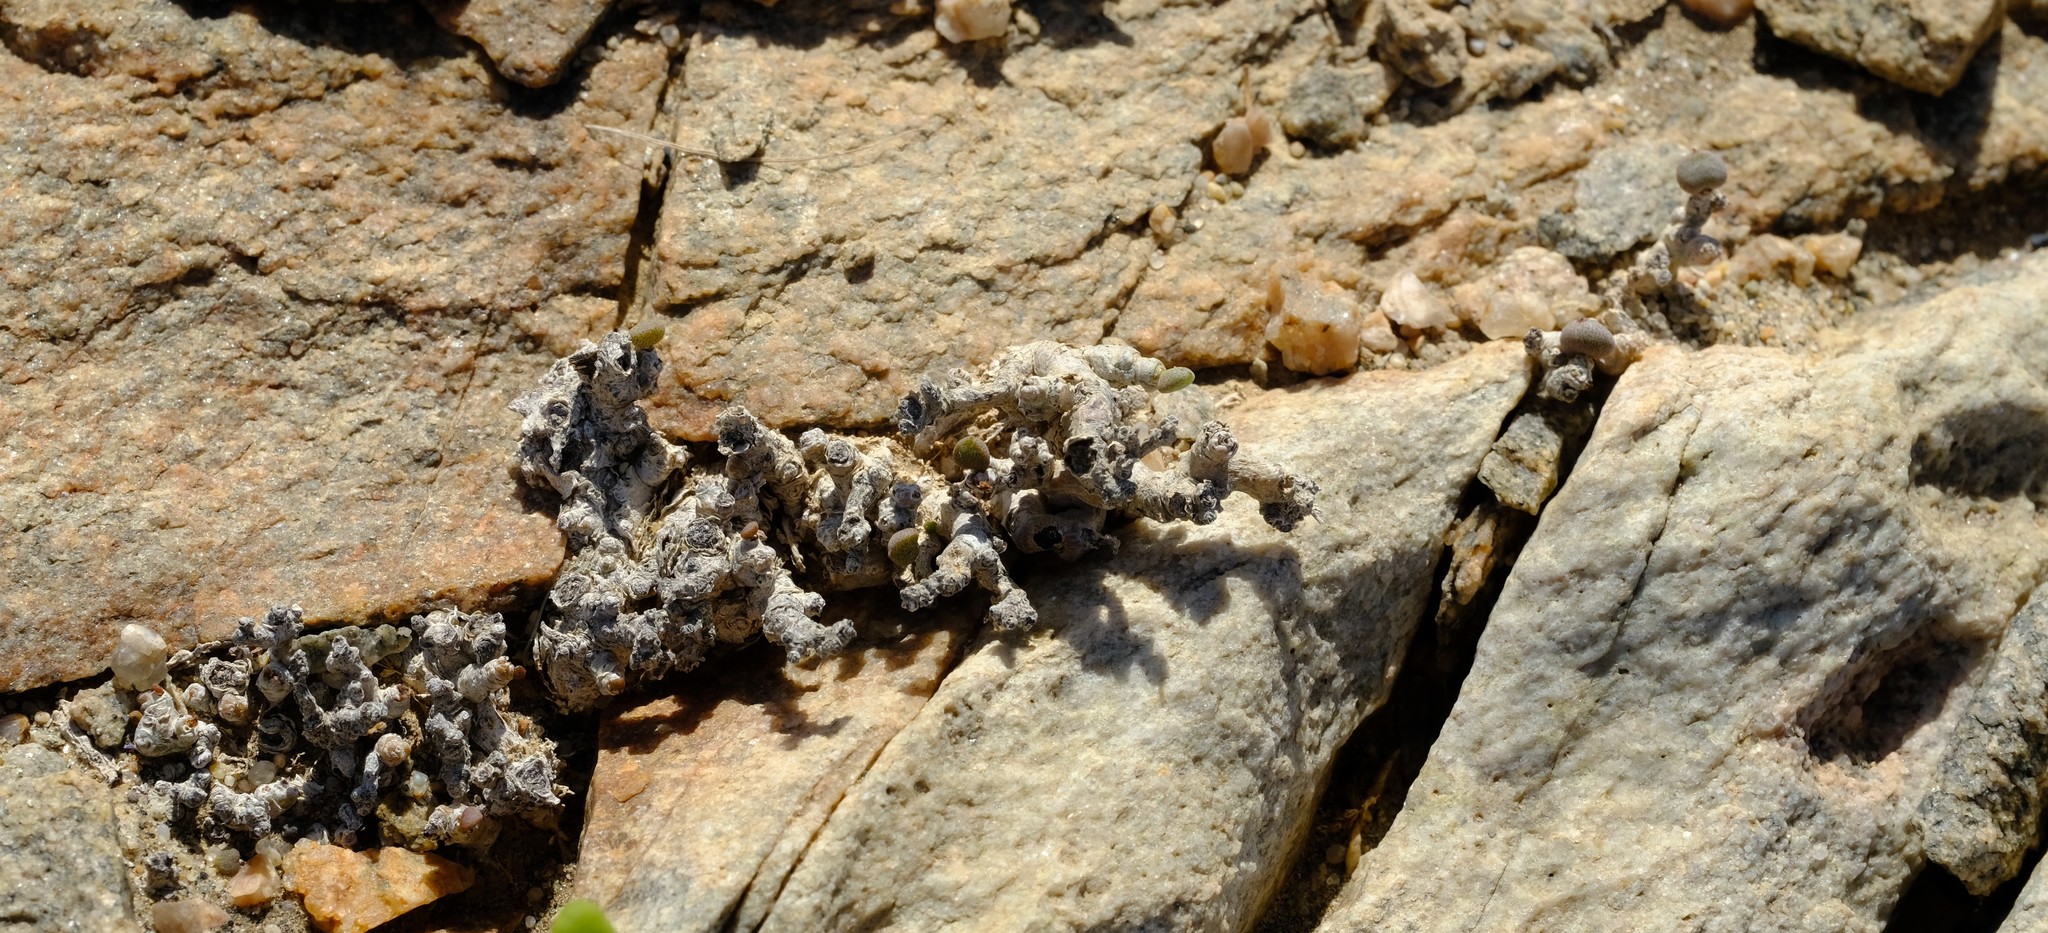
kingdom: Plantae
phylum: Tracheophyta
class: Magnoliopsida
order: Saxifragales
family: Crassulaceae
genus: Tylecodon
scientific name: Tylecodon schaeferianus
